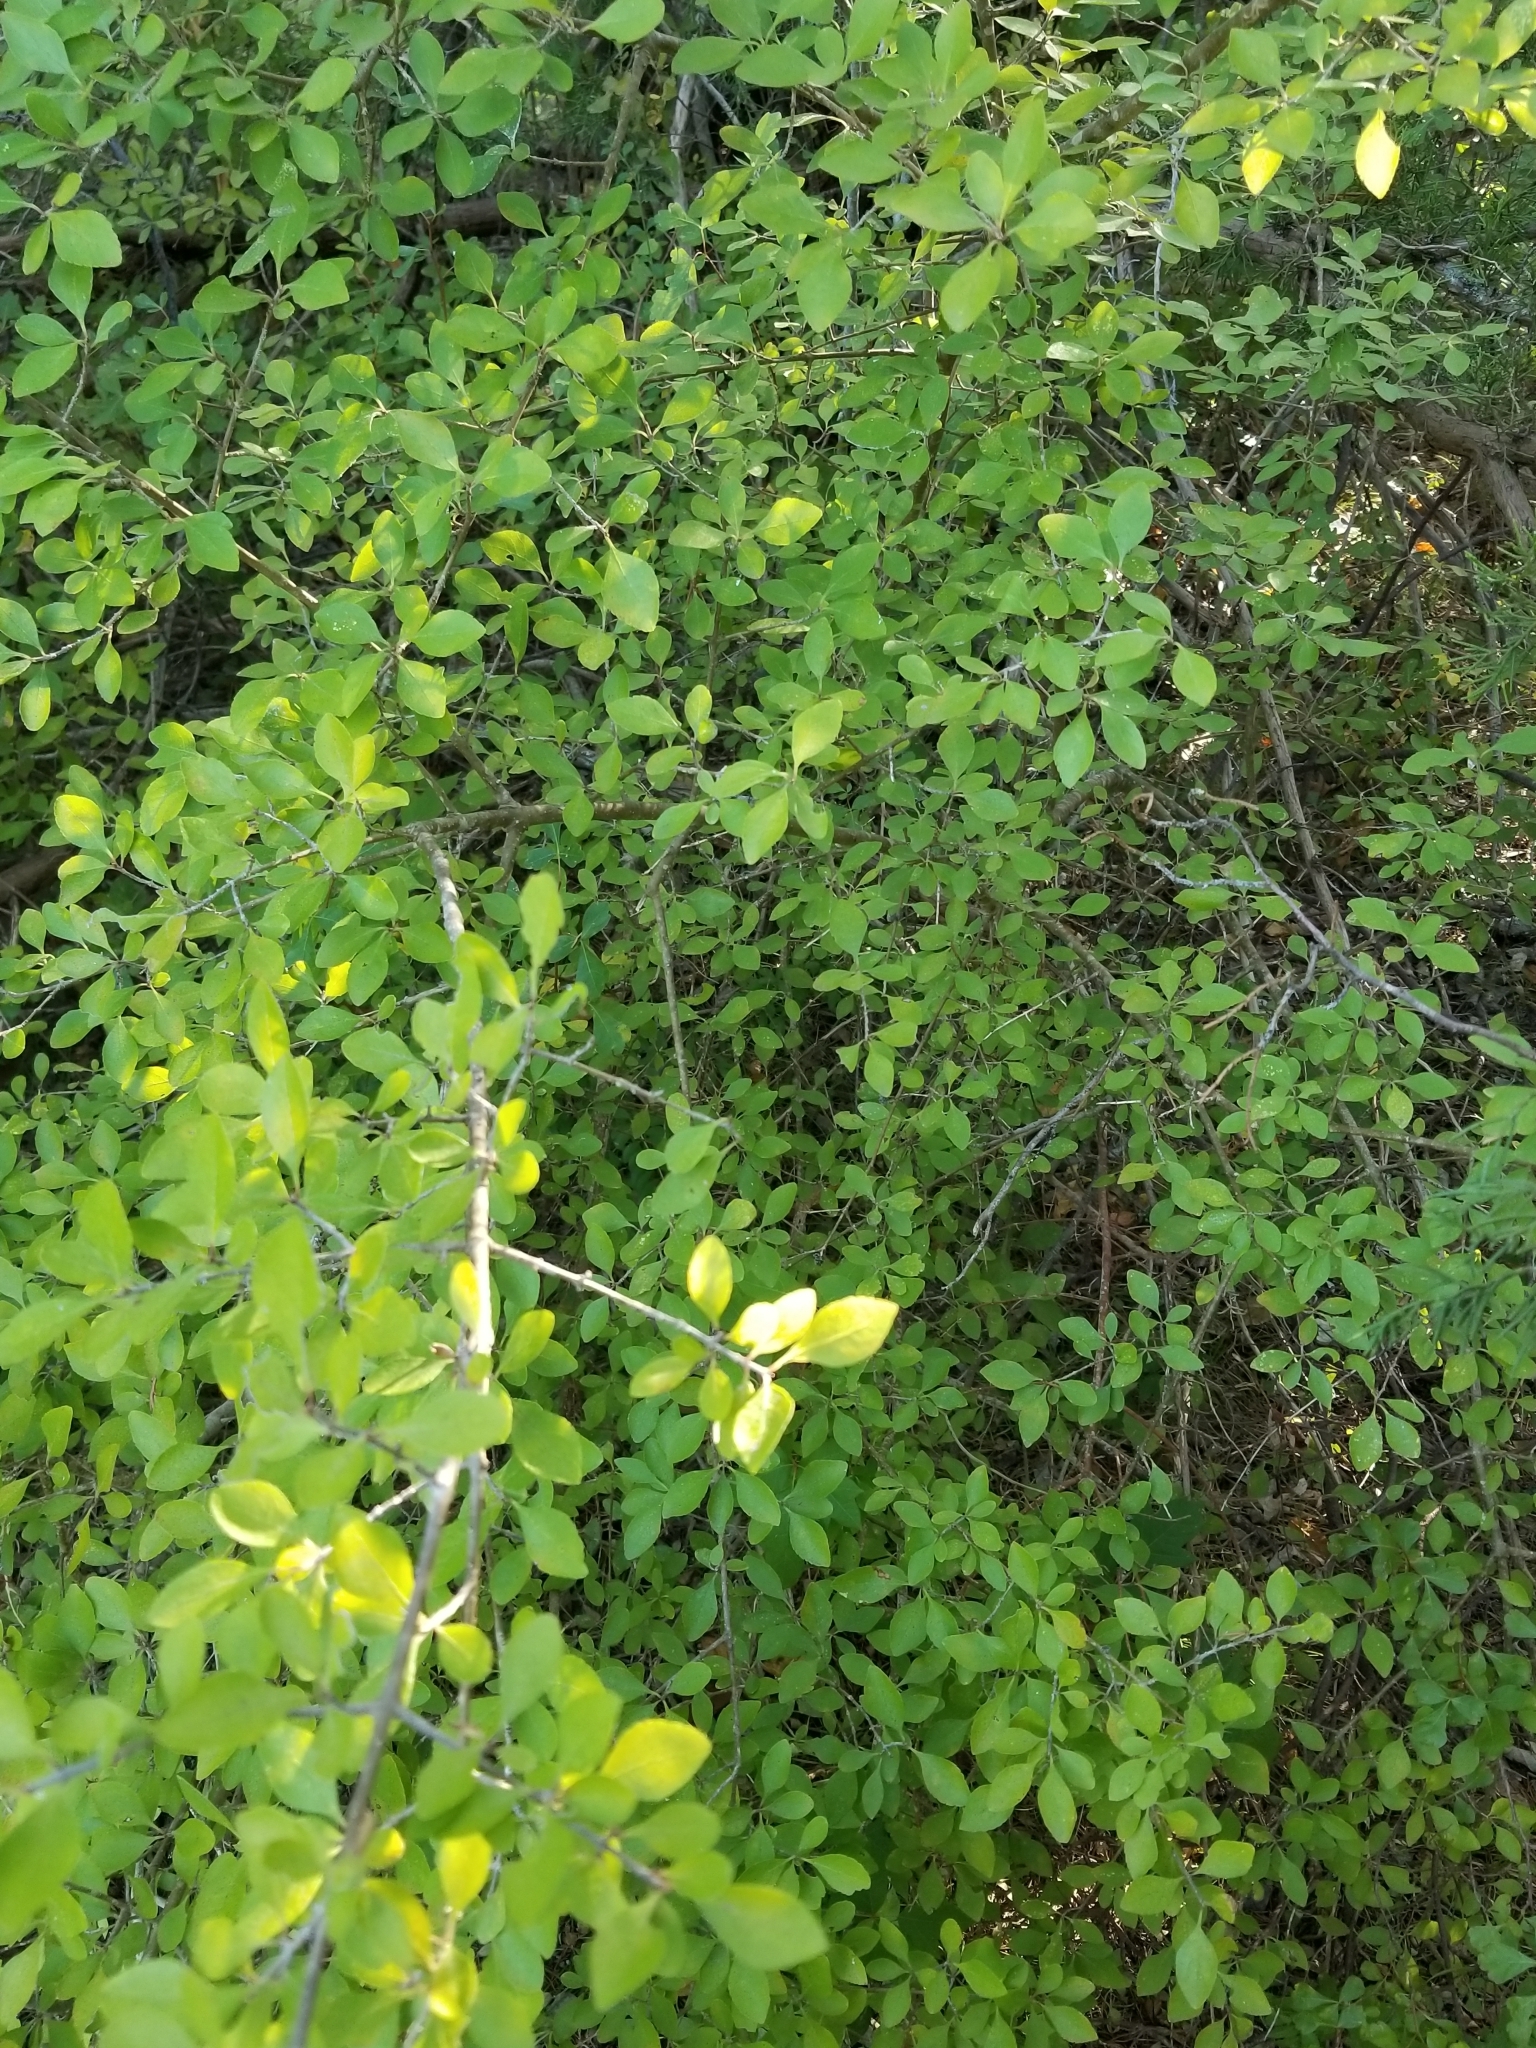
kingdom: Plantae
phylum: Tracheophyta
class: Magnoliopsida
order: Lamiales
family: Oleaceae
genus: Forestiera
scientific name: Forestiera pubescens
